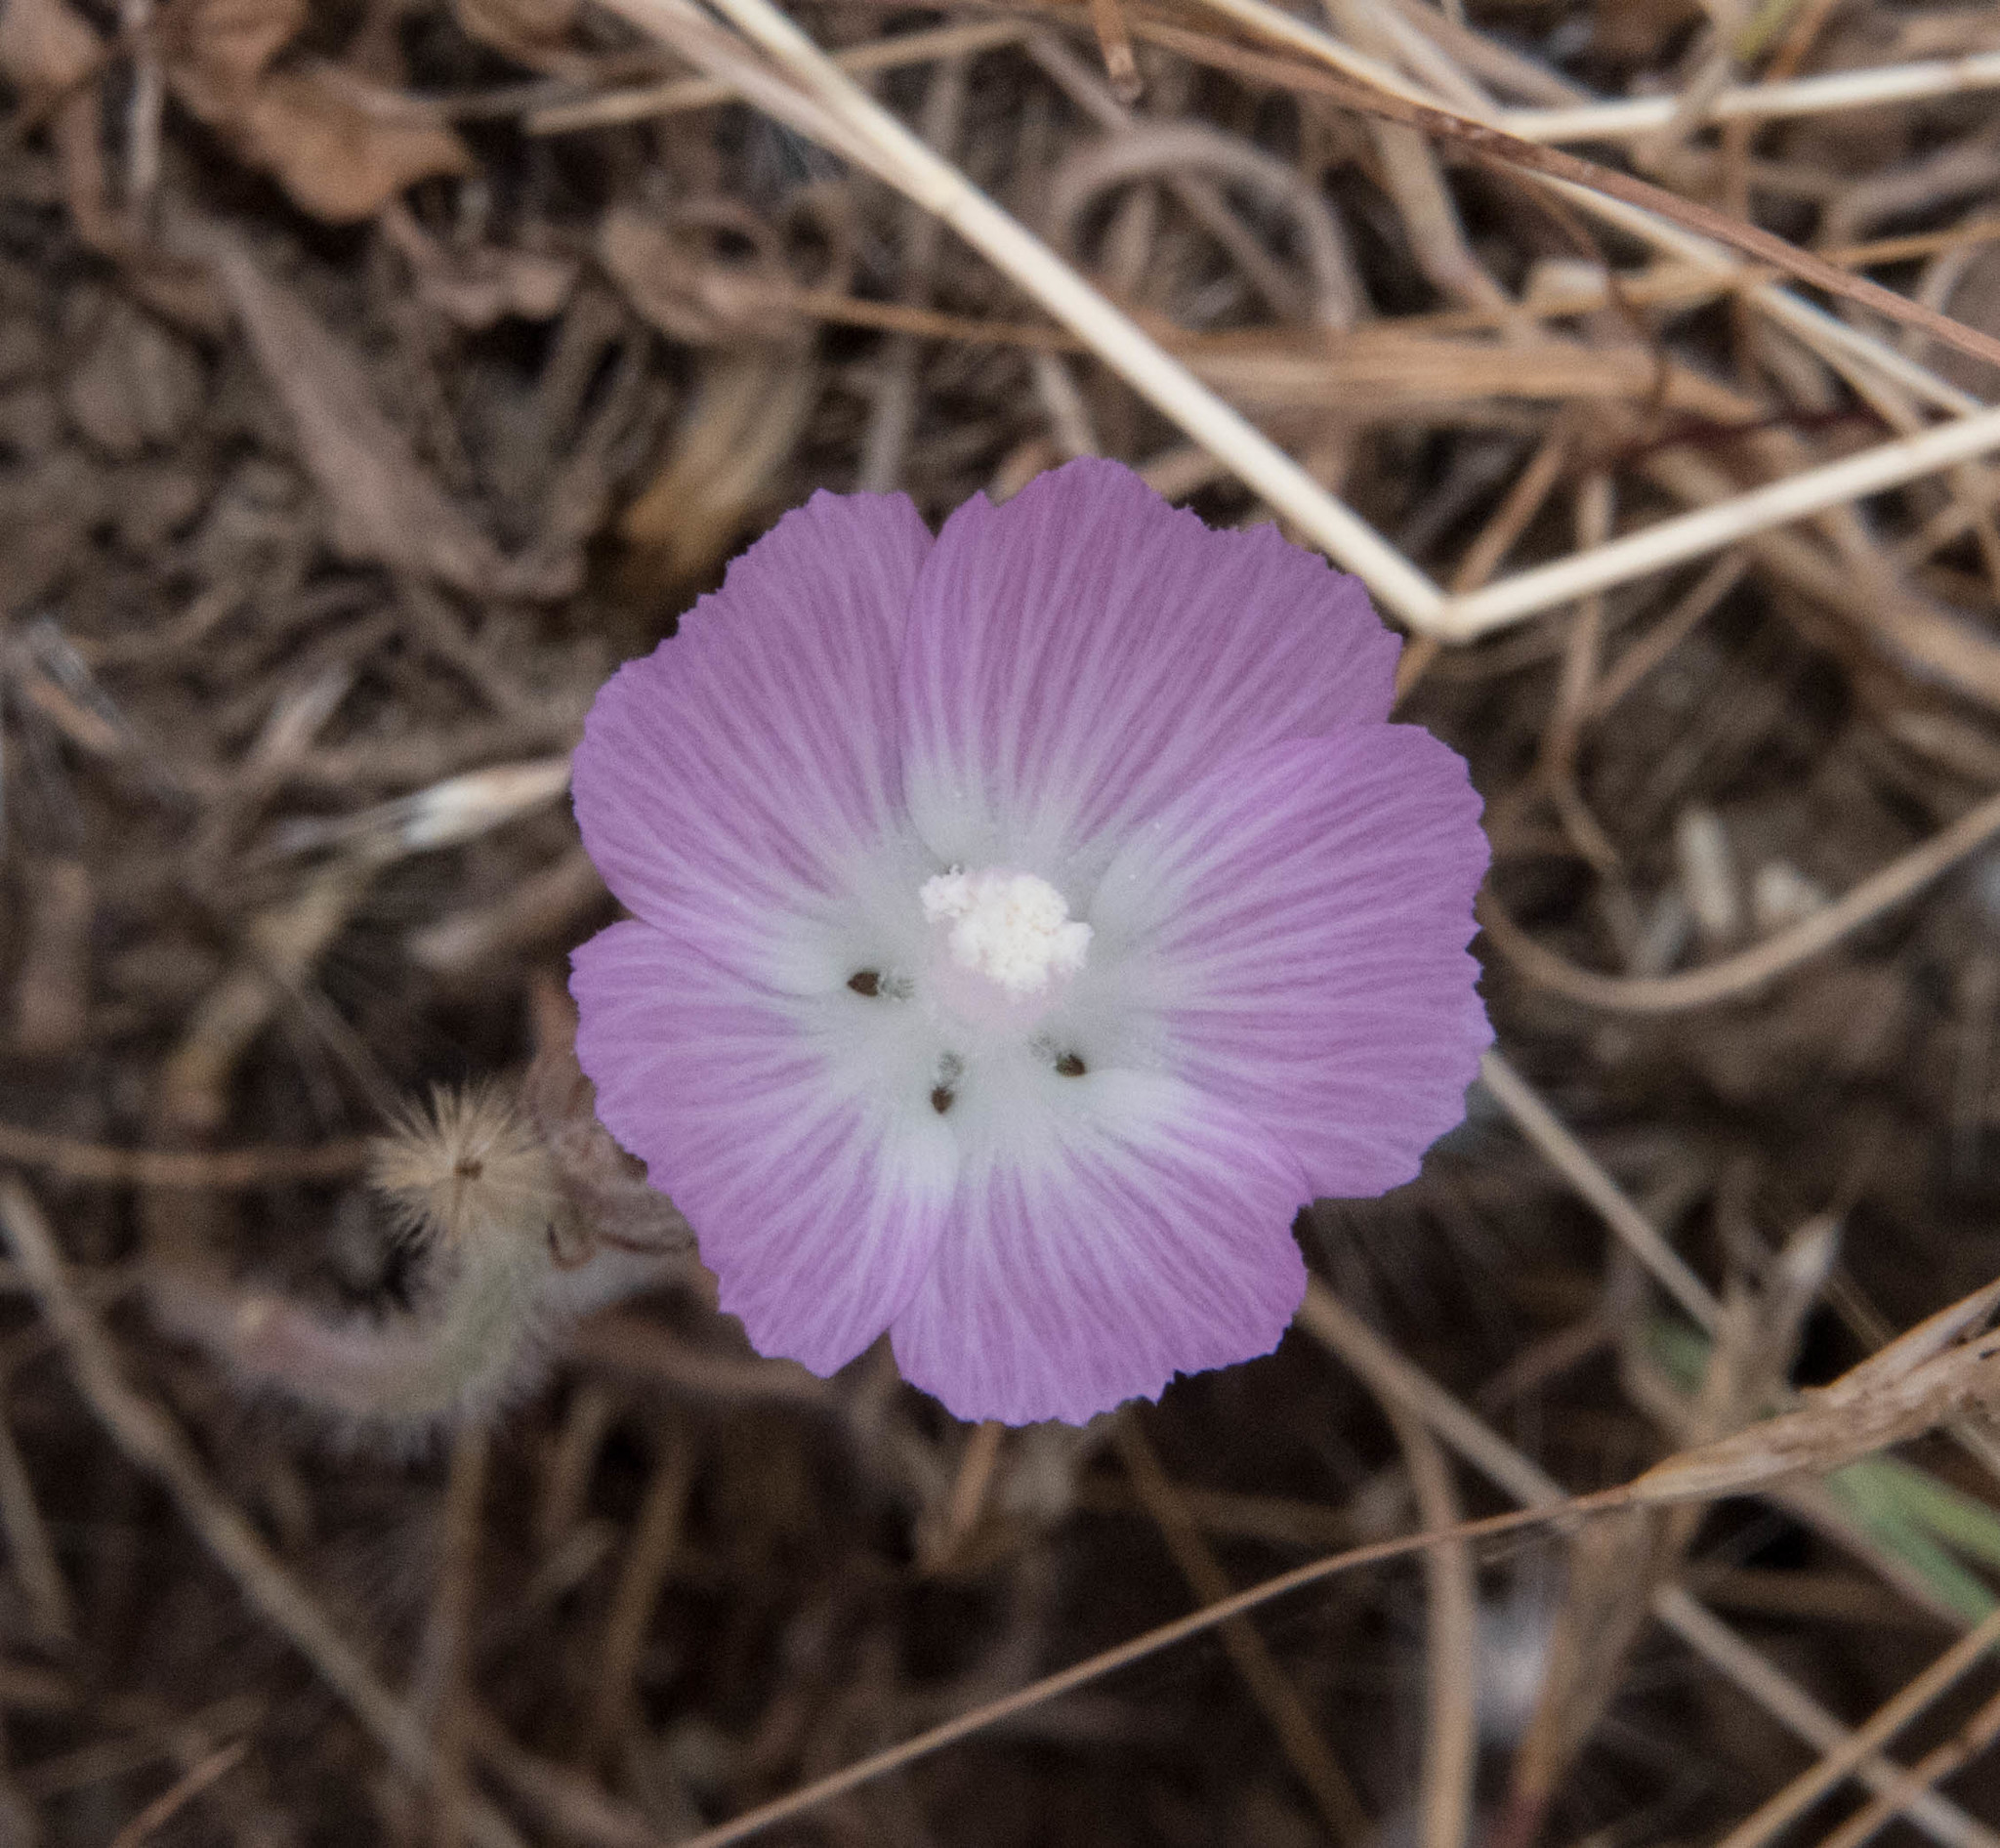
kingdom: Plantae
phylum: Tracheophyta
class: Magnoliopsida
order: Malvales
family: Malvaceae
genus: Sidalcea
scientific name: Sidalcea diploscypha
